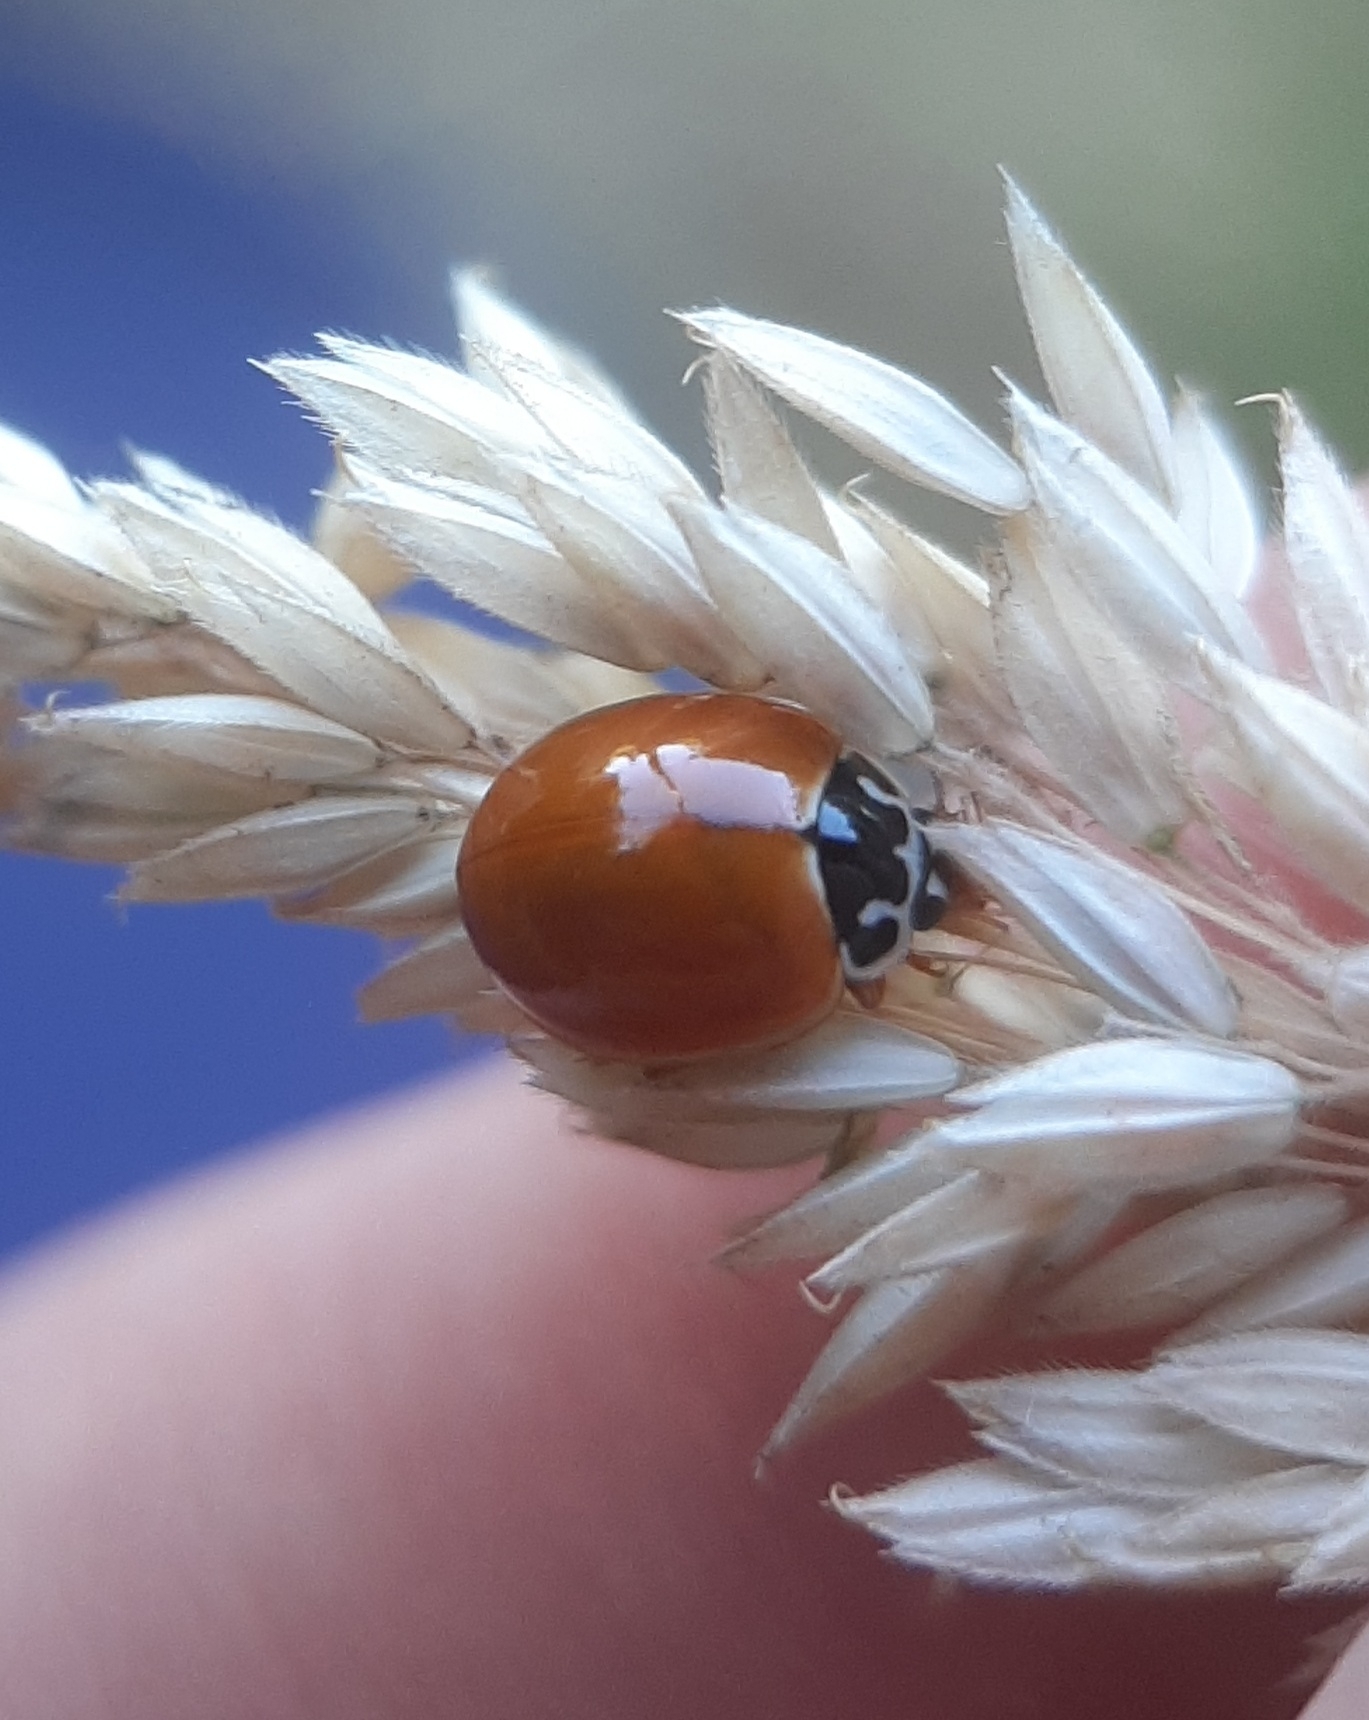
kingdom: Animalia
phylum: Arthropoda
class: Insecta
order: Coleoptera
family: Coccinellidae
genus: Cycloneda
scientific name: Cycloneda munda
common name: Polished lady beetle
